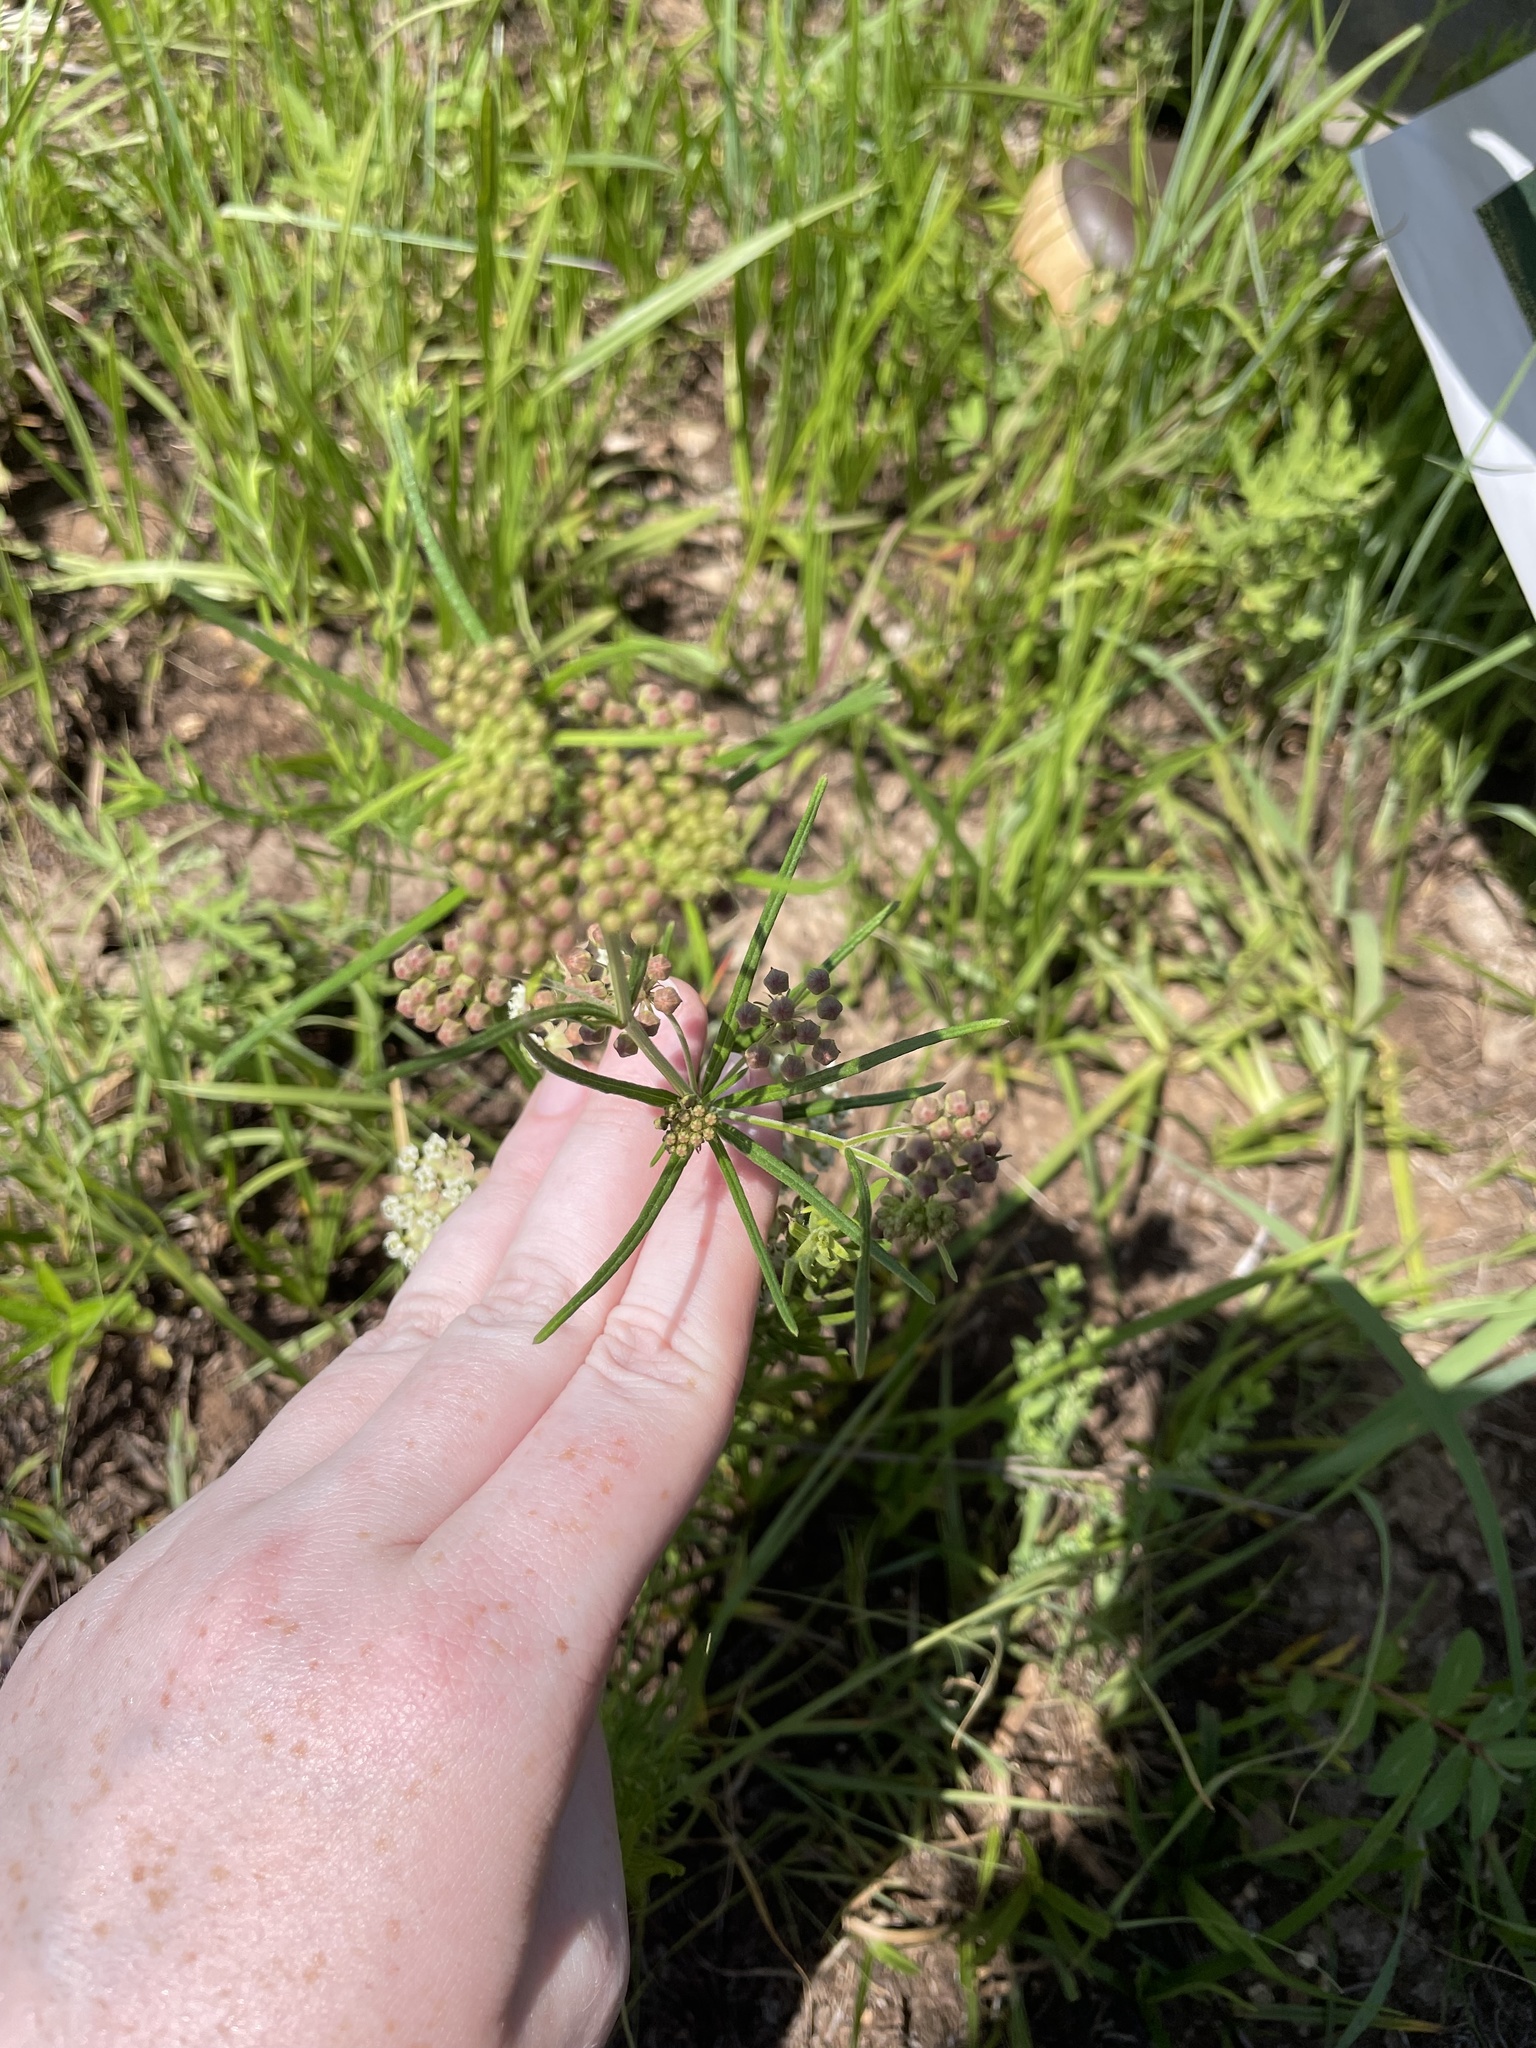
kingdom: Plantae
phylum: Tracheophyta
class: Magnoliopsida
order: Gentianales
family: Apocynaceae
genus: Asclepias
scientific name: Asclepias verticillata
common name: Eastern whorled milkweed
